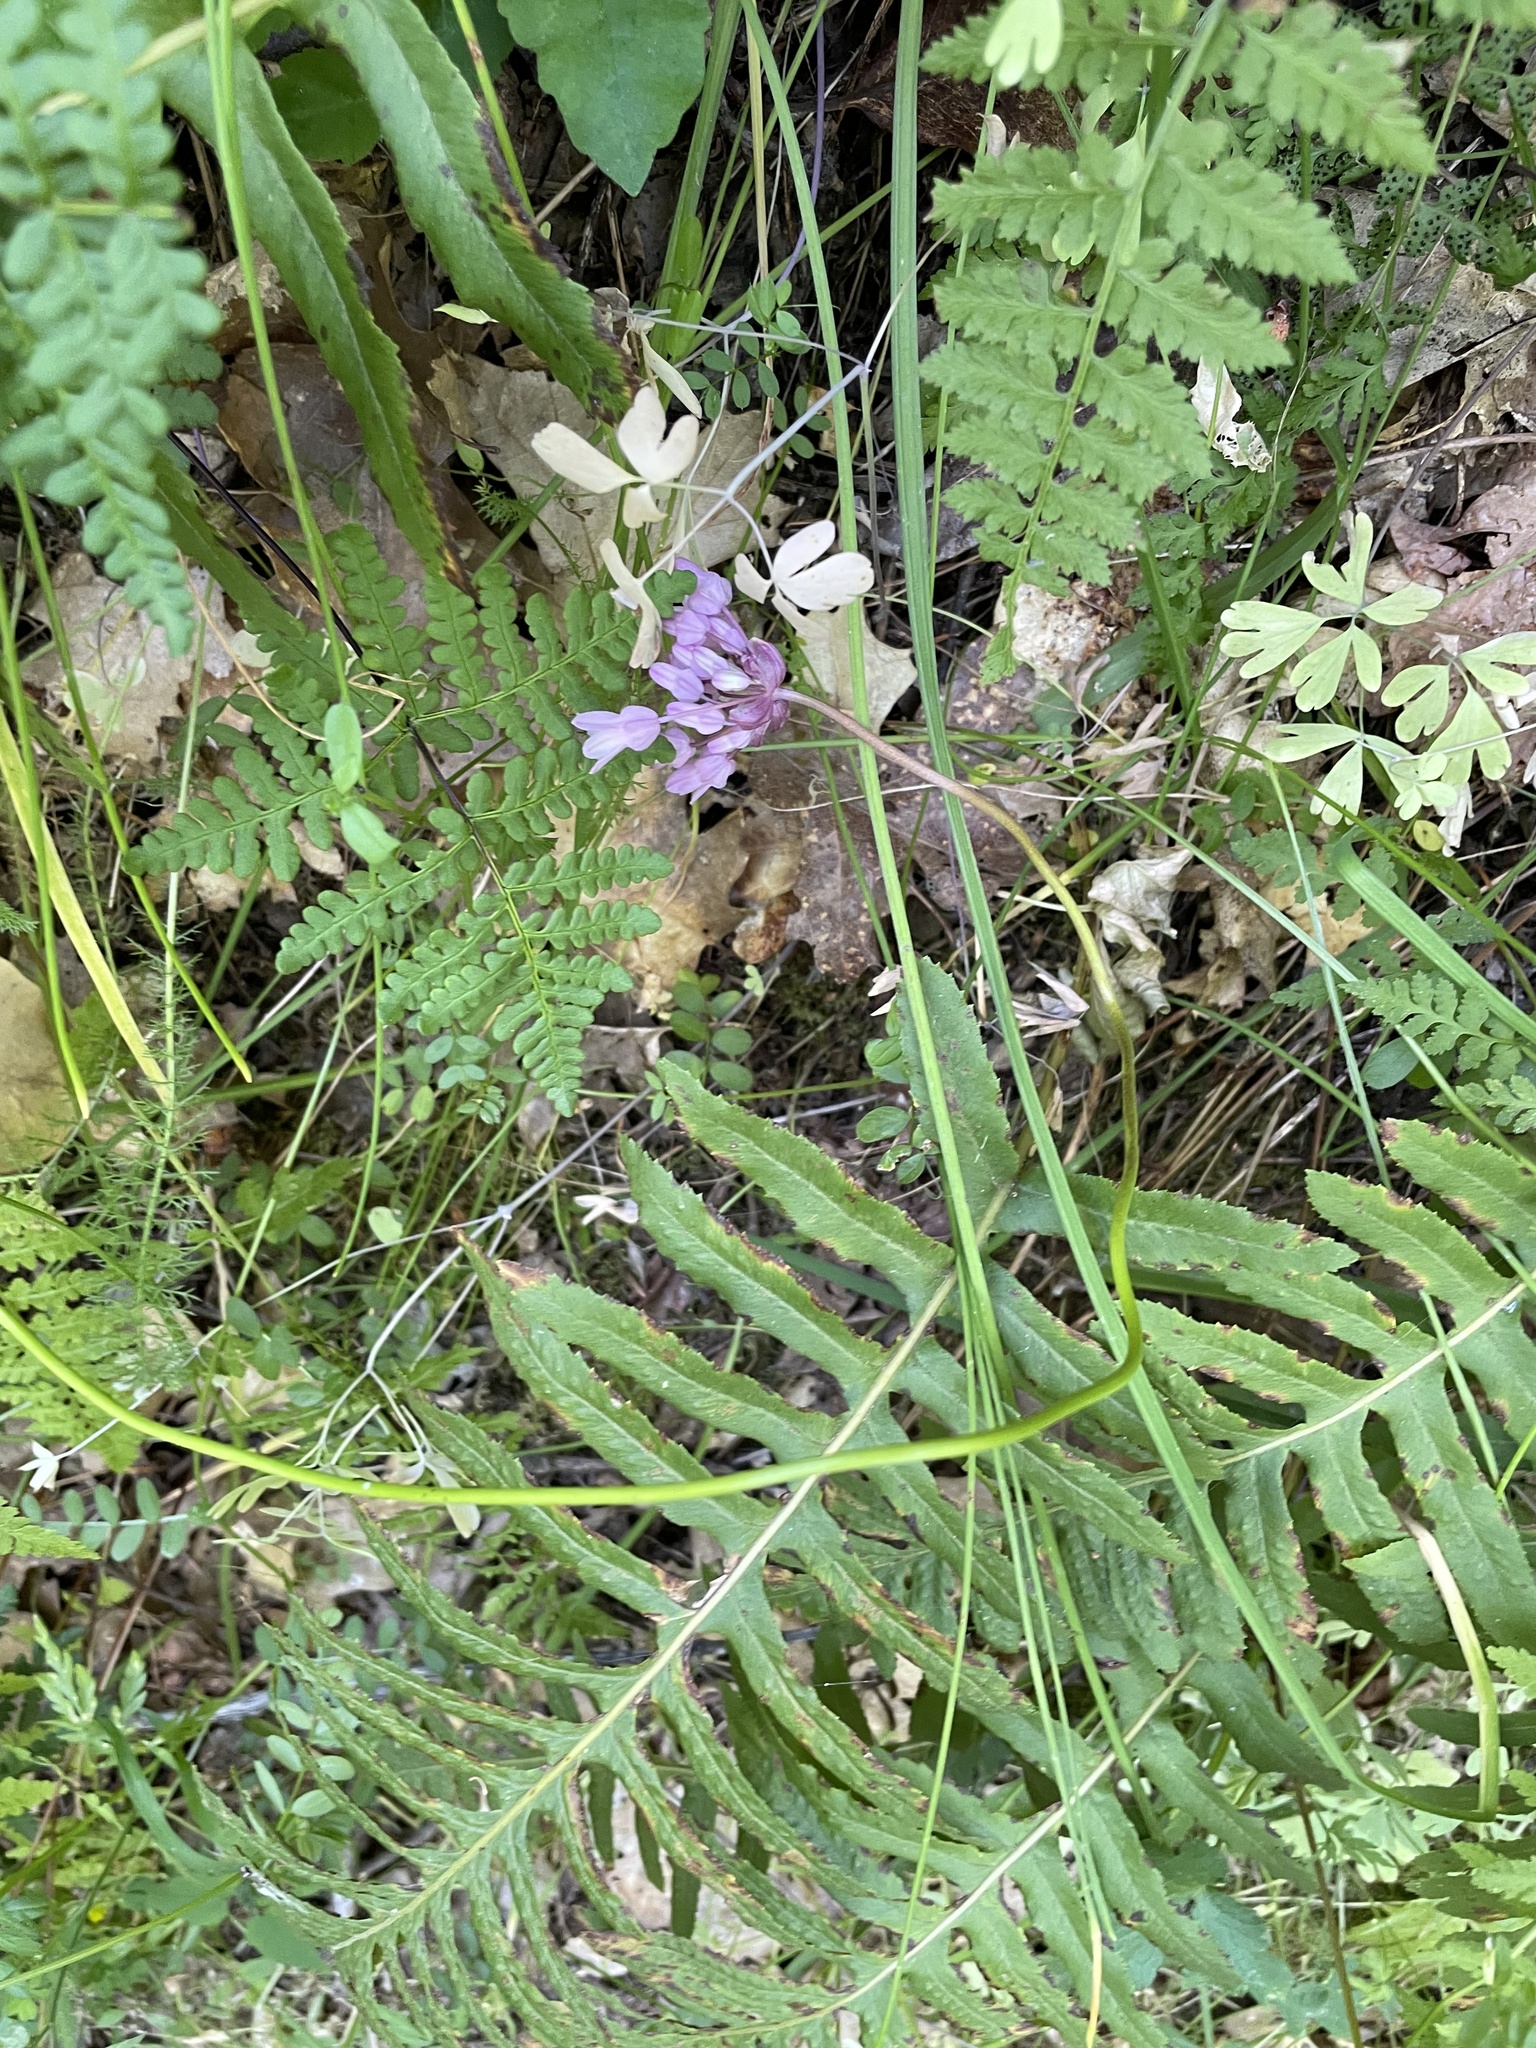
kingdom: Plantae
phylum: Tracheophyta
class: Liliopsida
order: Asparagales
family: Asparagaceae
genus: Dichelostemma
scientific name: Dichelostemma volubile
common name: Trining brodiaea
